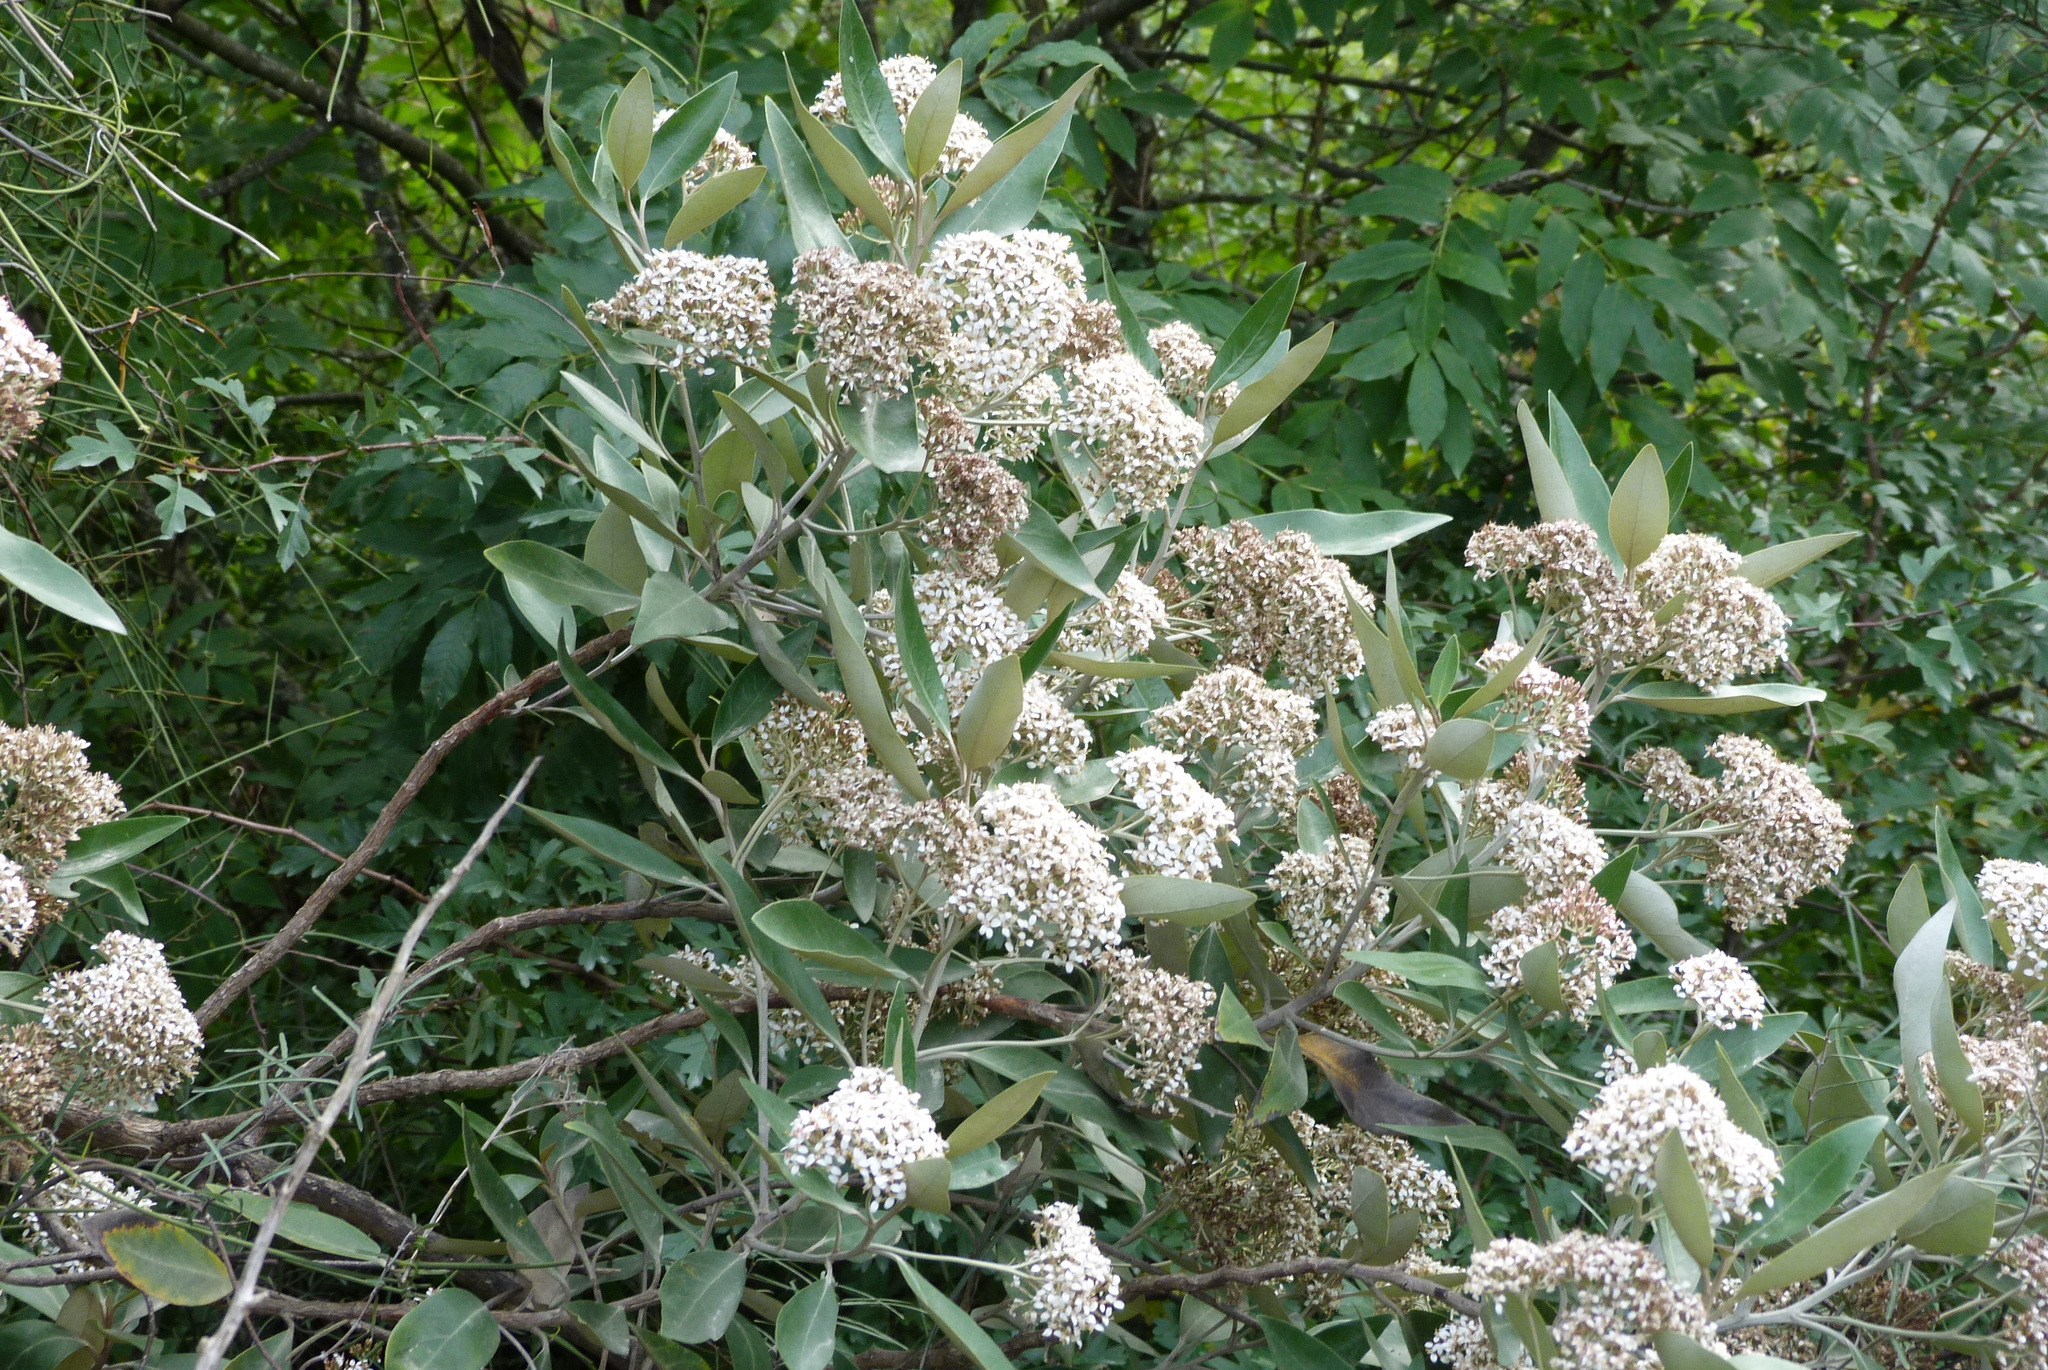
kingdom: Plantae
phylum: Tracheophyta
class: Magnoliopsida
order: Asterales
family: Asteraceae
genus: Olearia
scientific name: Olearia avicenniifolia
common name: Mangrove-leaf daisybush
